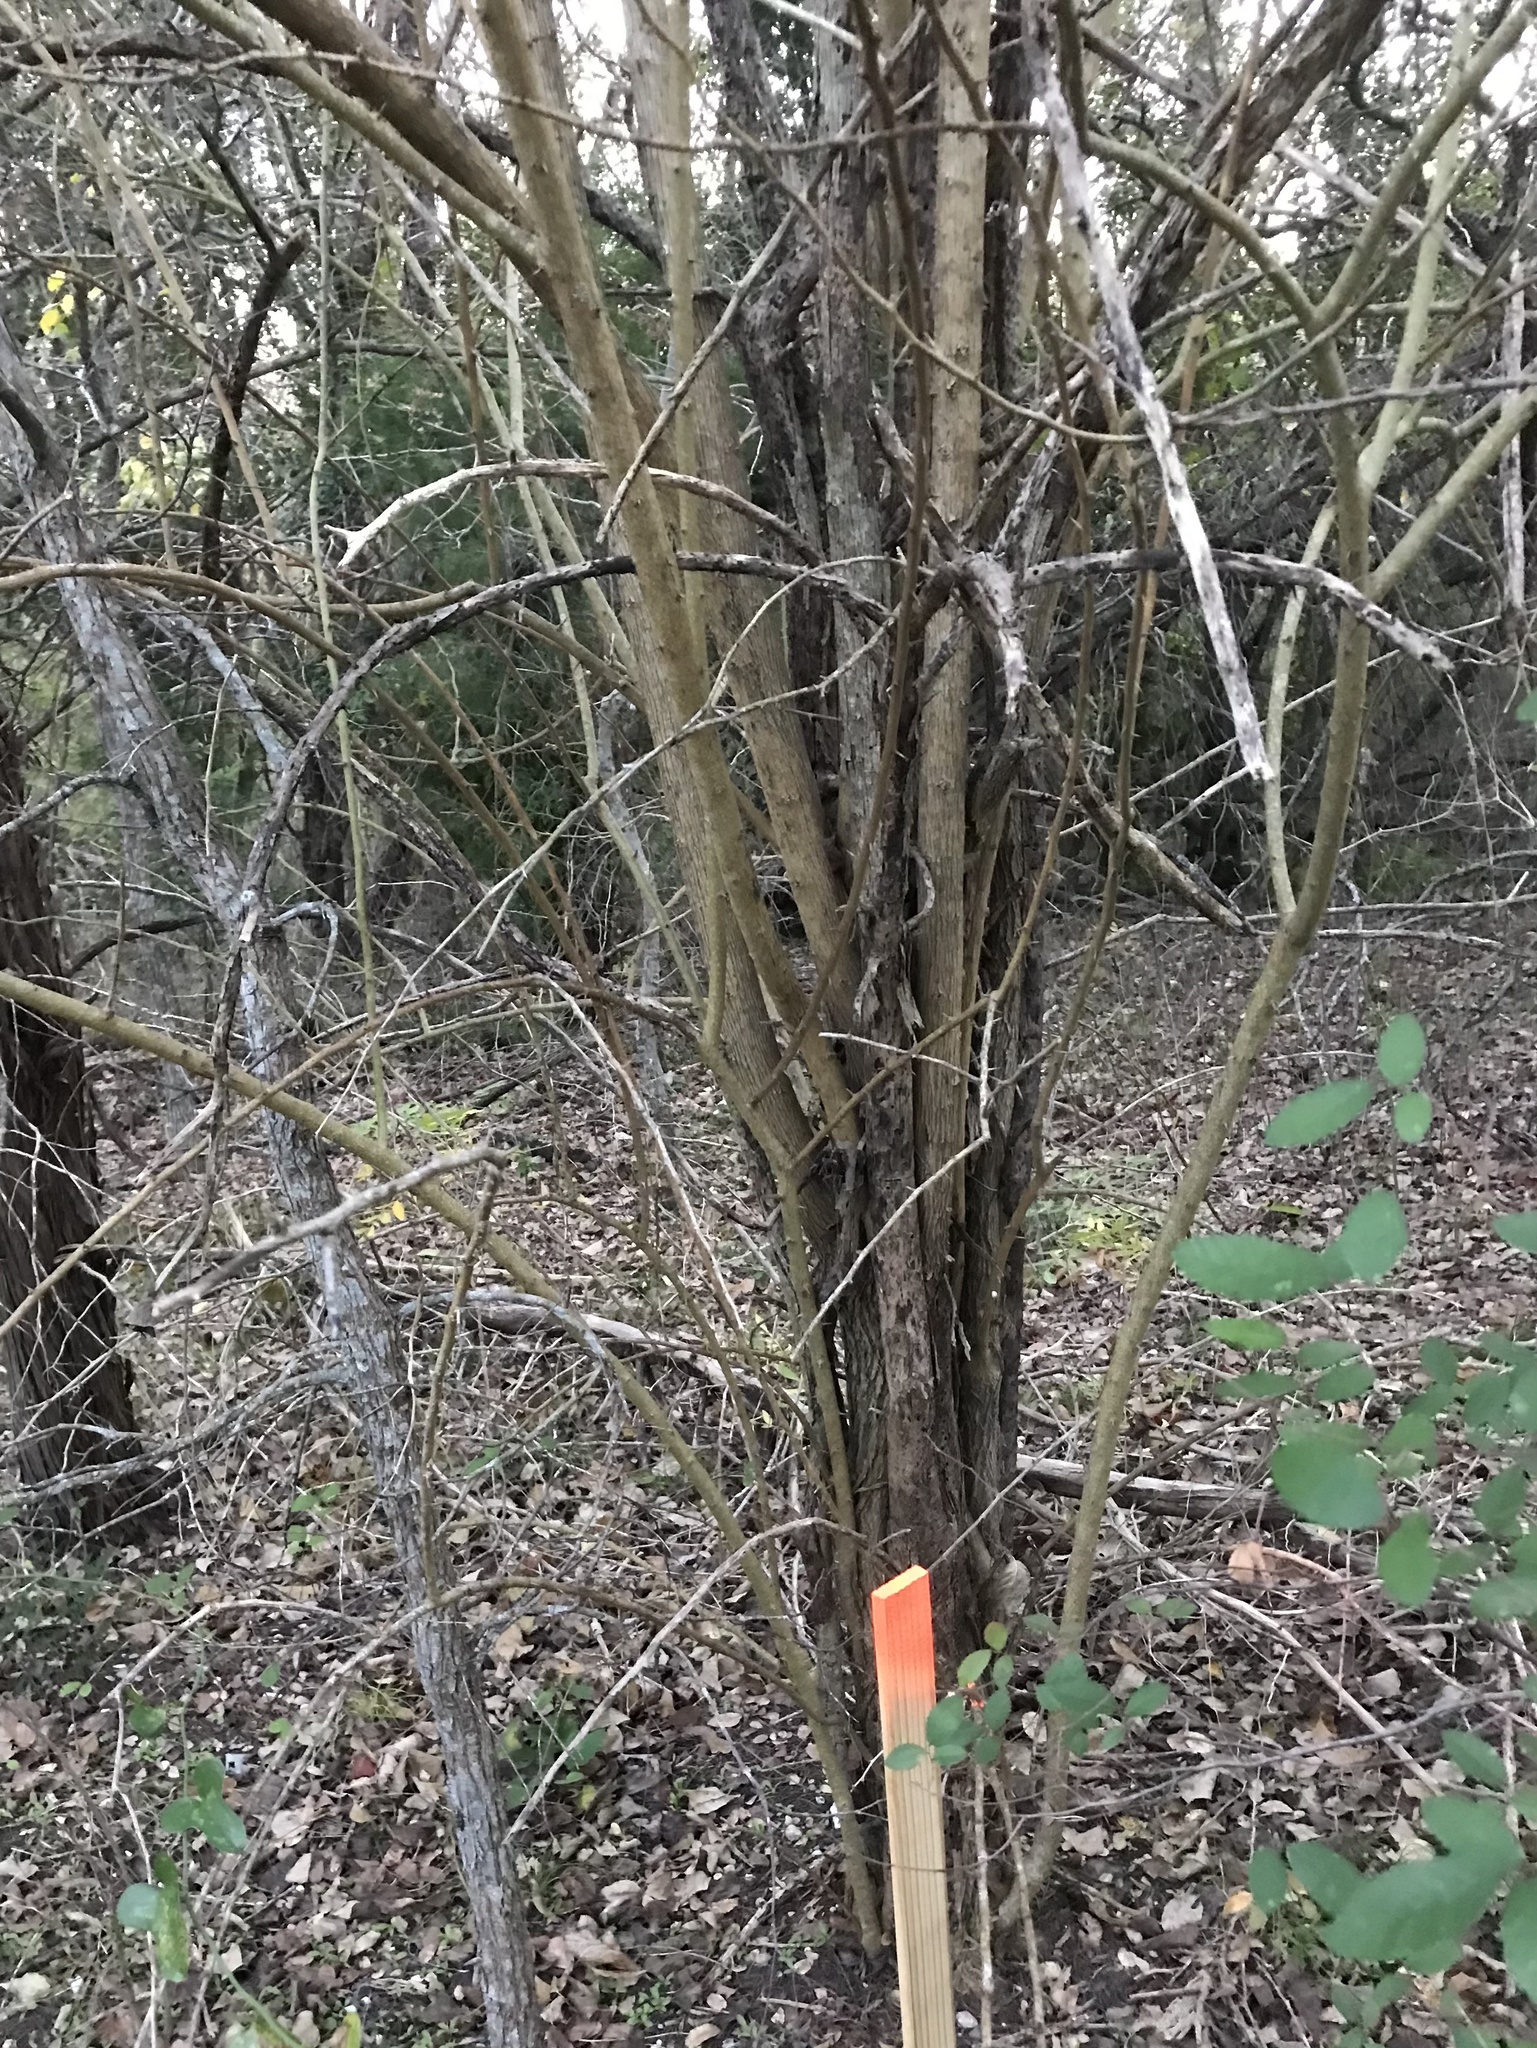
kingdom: Plantae
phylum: Tracheophyta
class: Magnoliopsida
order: Rosales
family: Moraceae
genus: Maclura
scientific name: Maclura pomifera
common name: Osage-orange
